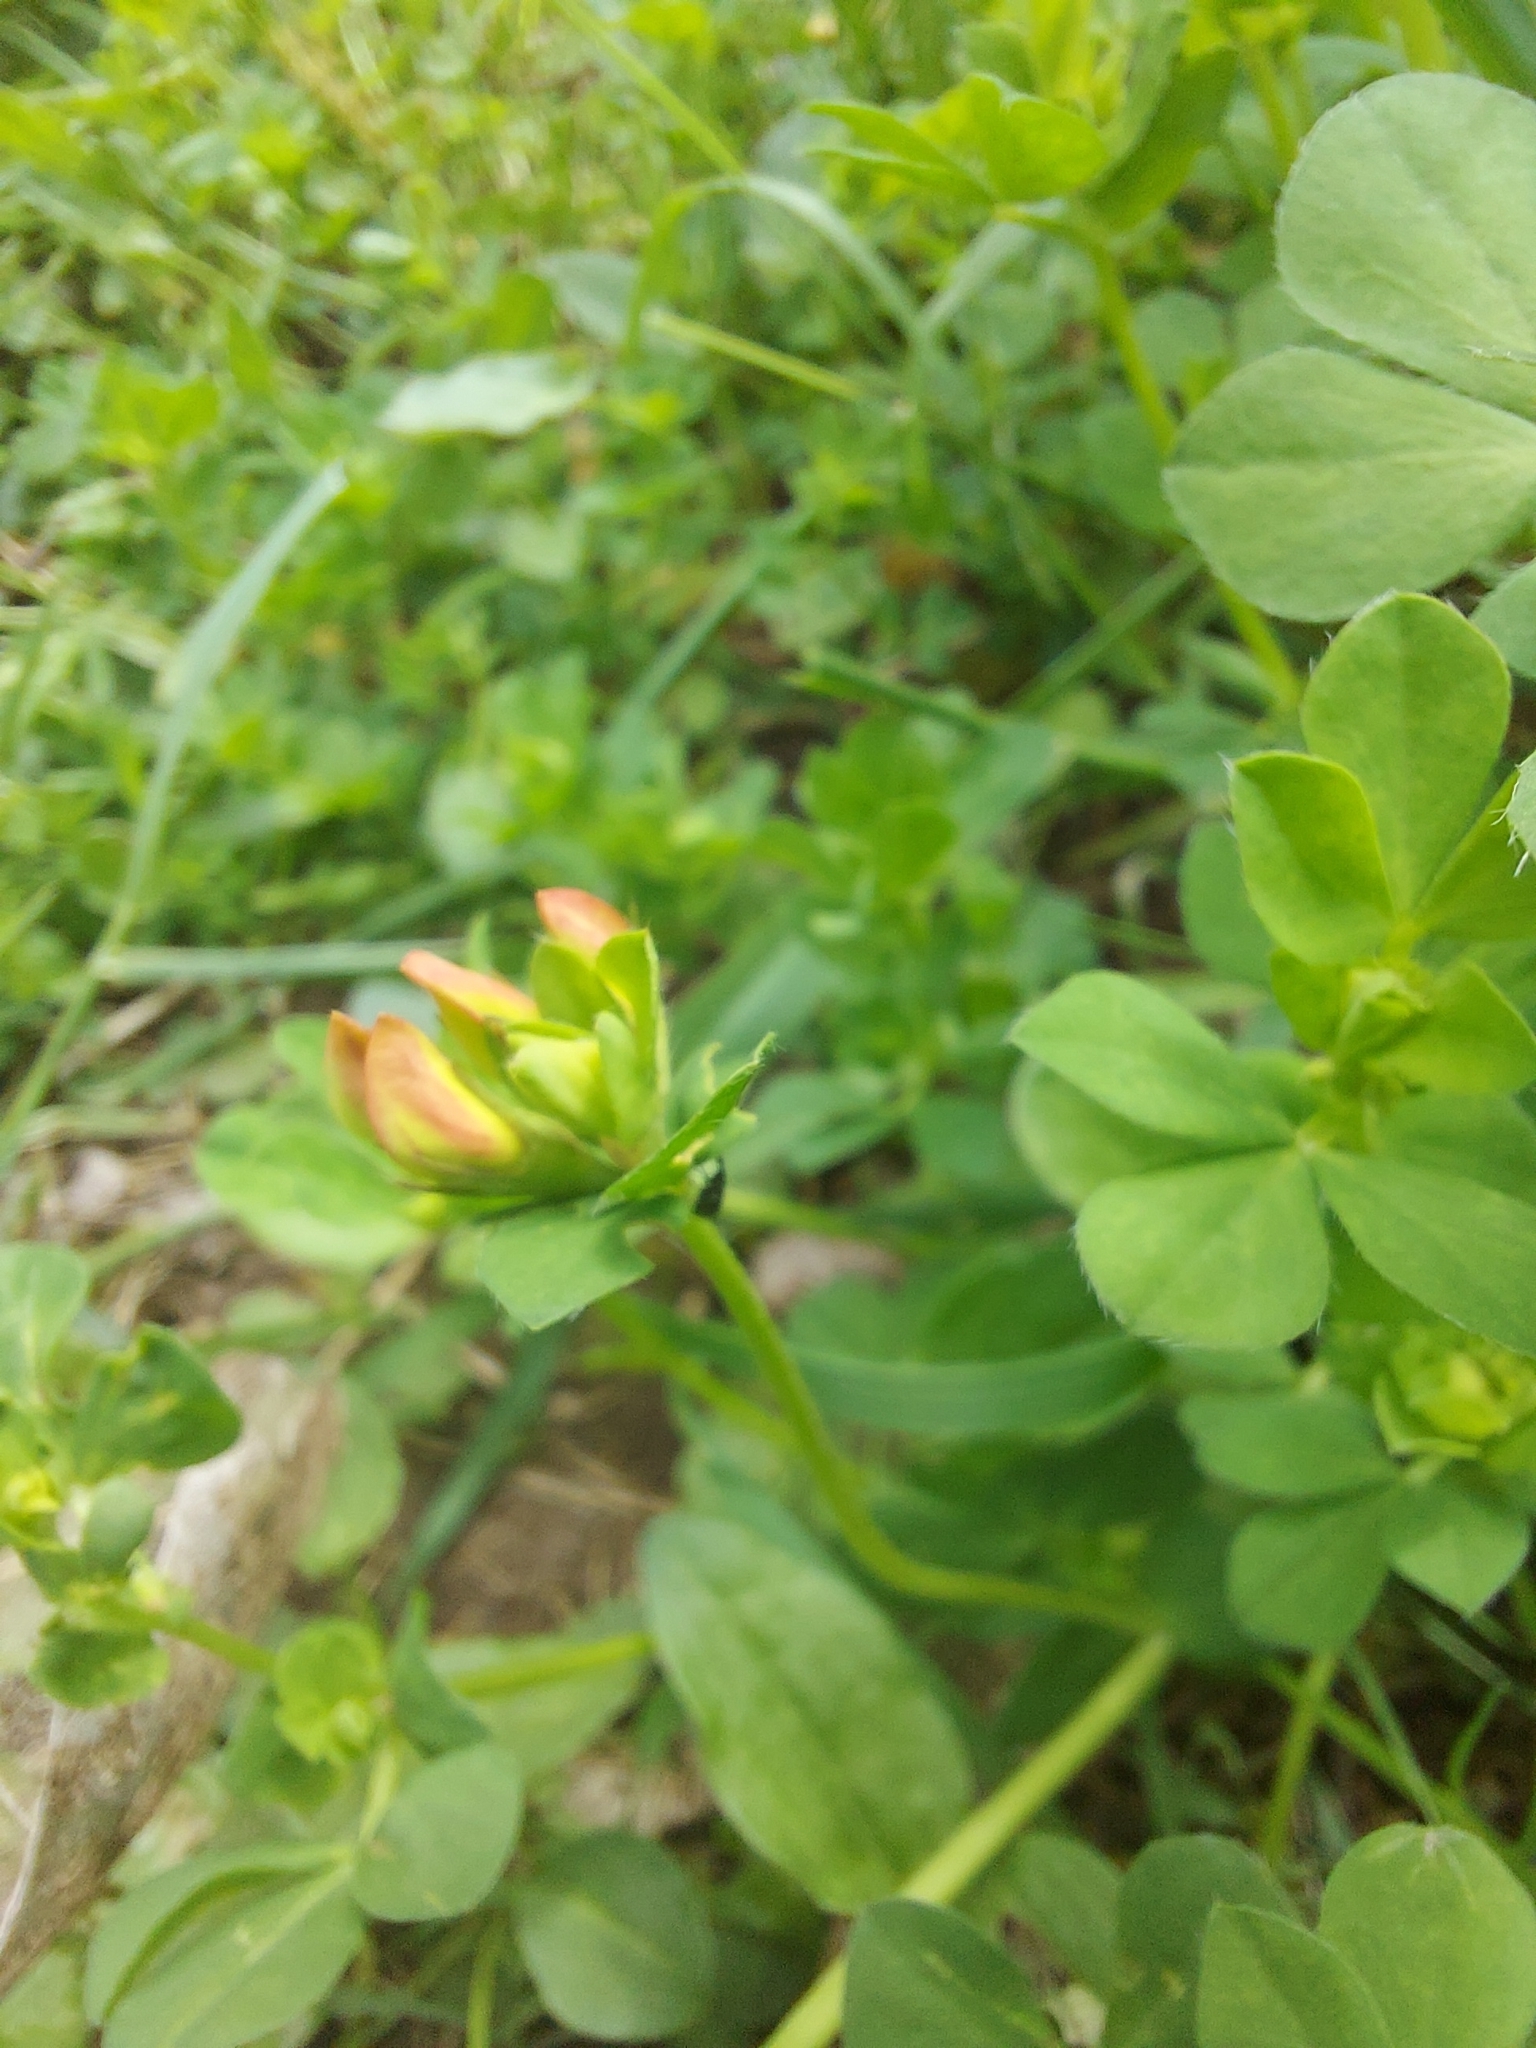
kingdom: Plantae
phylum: Tracheophyta
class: Magnoliopsida
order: Fabales
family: Fabaceae
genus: Lotus
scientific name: Lotus corniculatus
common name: Common bird's-foot-trefoil
